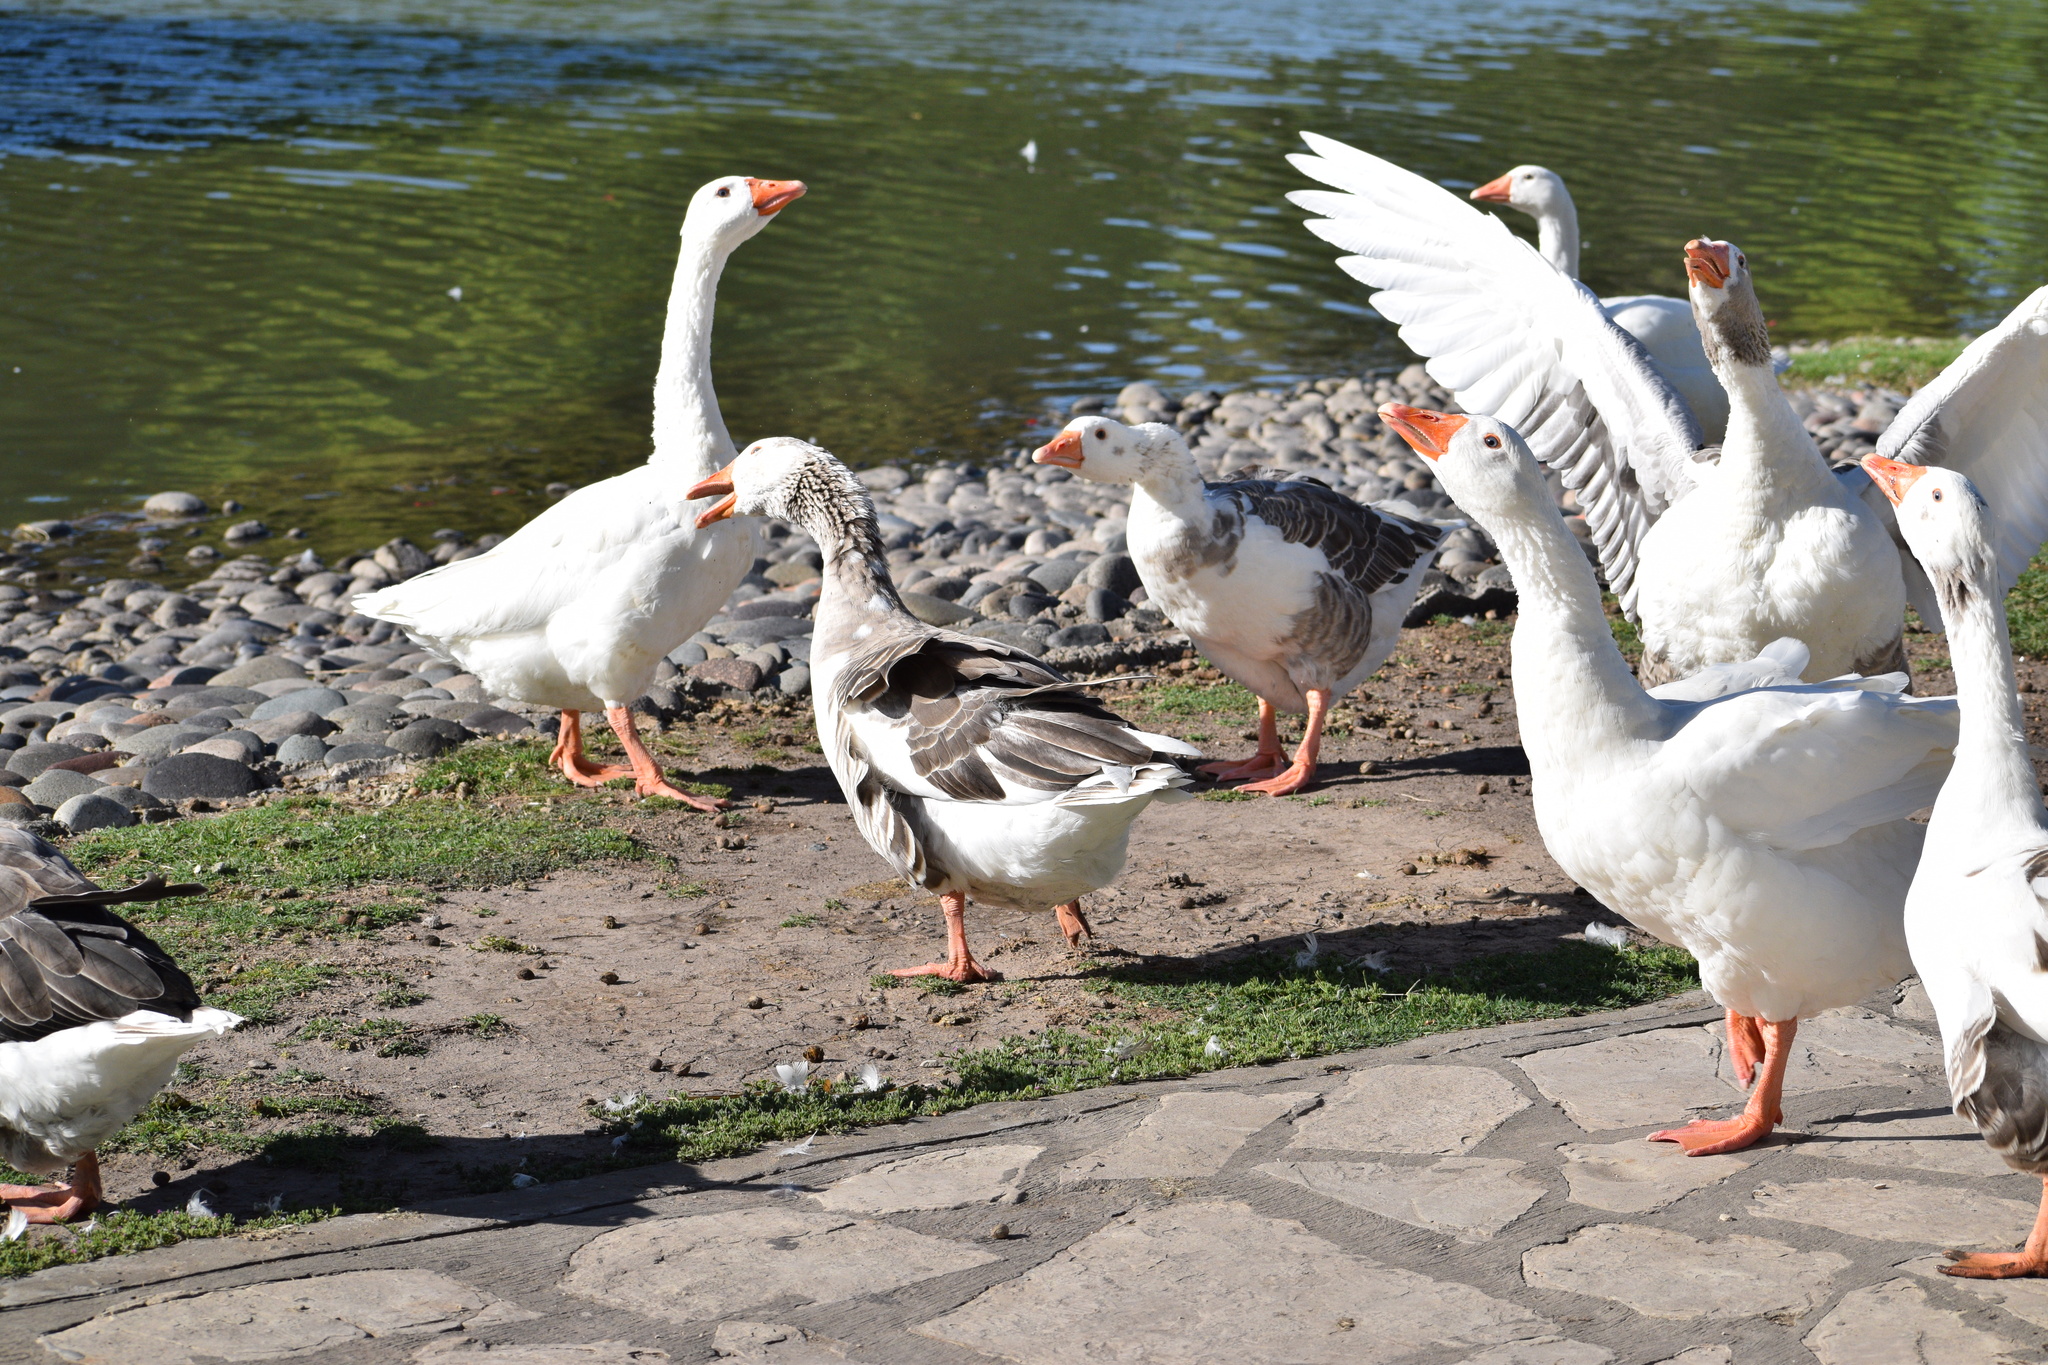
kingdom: Animalia
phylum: Chordata
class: Aves
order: Anseriformes
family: Anatidae
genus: Anser
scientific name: Anser anser
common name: Greylag goose
